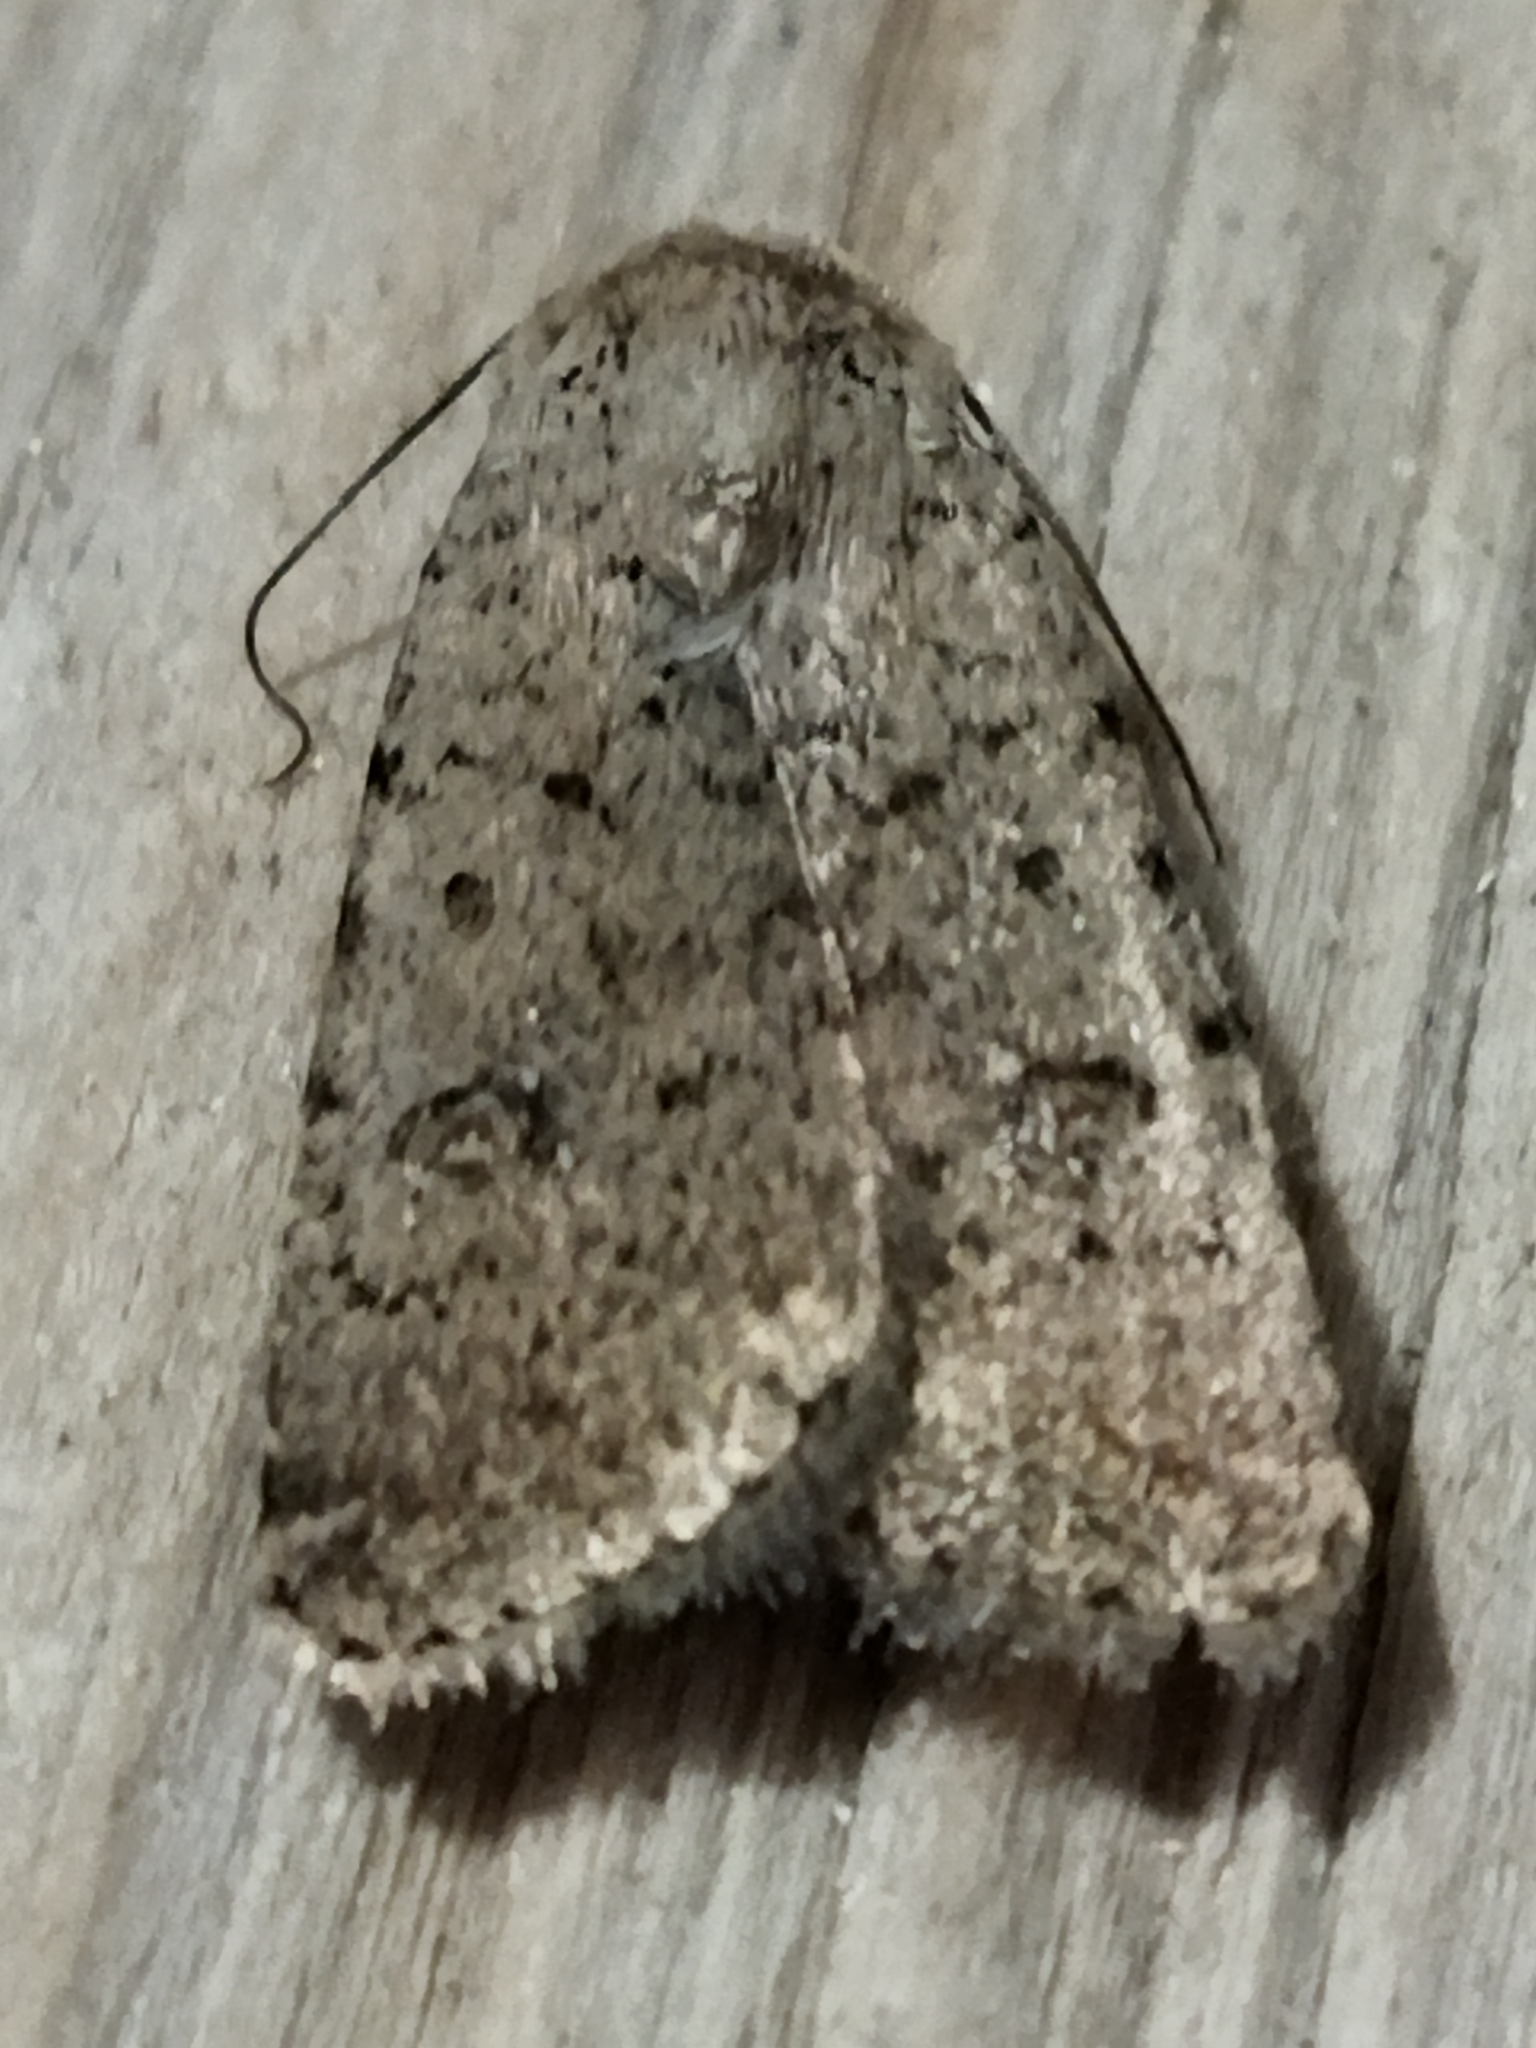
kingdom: Animalia
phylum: Arthropoda
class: Insecta
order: Lepidoptera
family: Noctuidae
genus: Caradrina
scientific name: Caradrina clavipalpis
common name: Pale mottled willow
